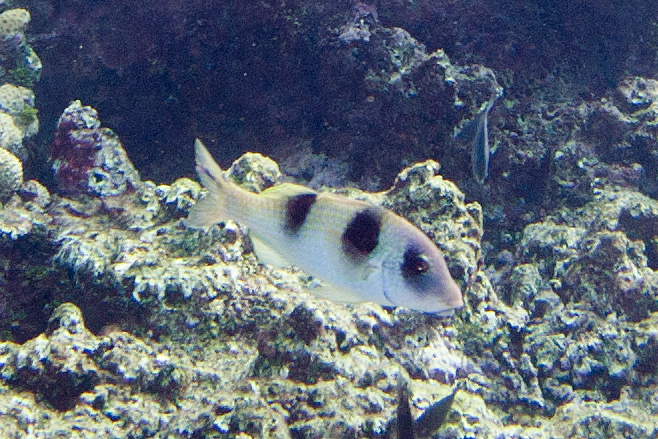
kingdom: Animalia
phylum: Chordata
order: Perciformes
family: Mullidae
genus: Parupeneus
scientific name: Parupeneus crassilabris
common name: Doublebar goatfish
